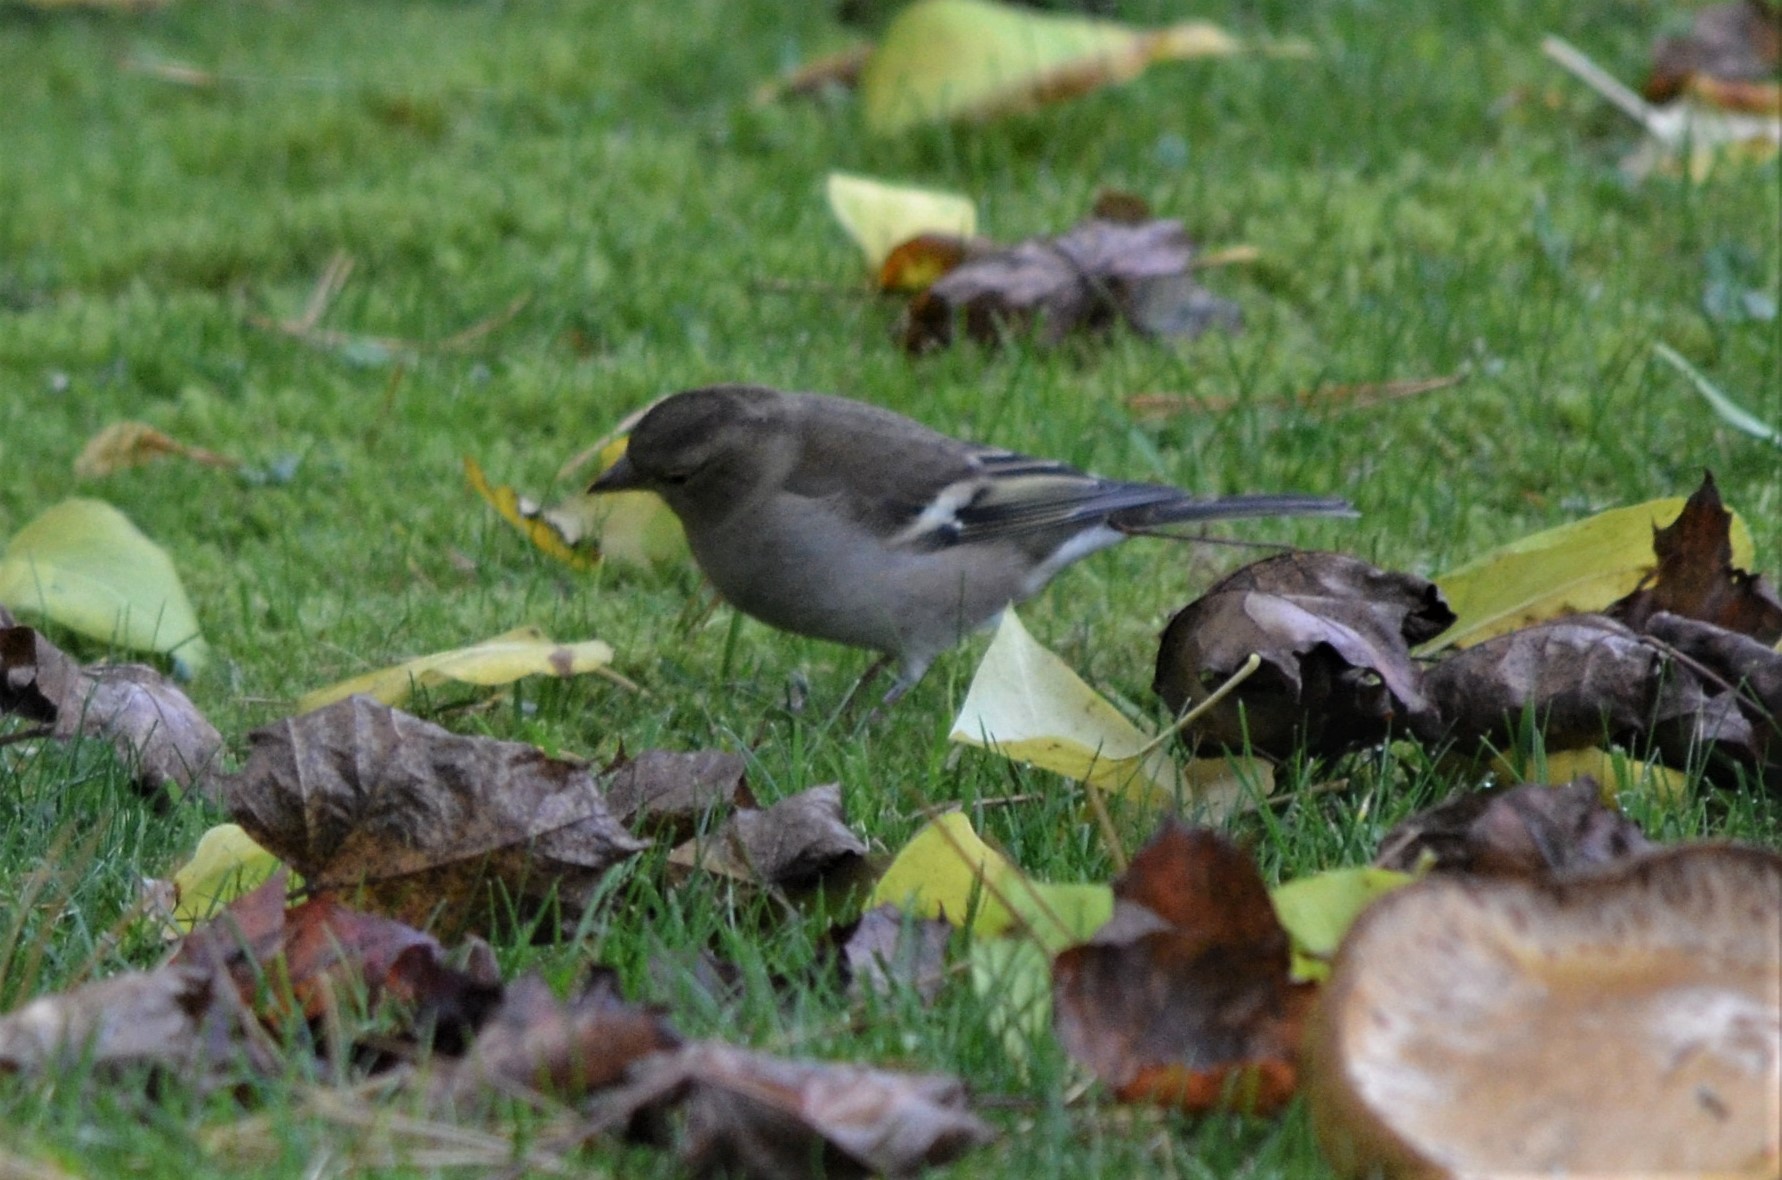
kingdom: Animalia
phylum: Chordata
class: Aves
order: Passeriformes
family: Fringillidae
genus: Fringilla
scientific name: Fringilla coelebs
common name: Common chaffinch
